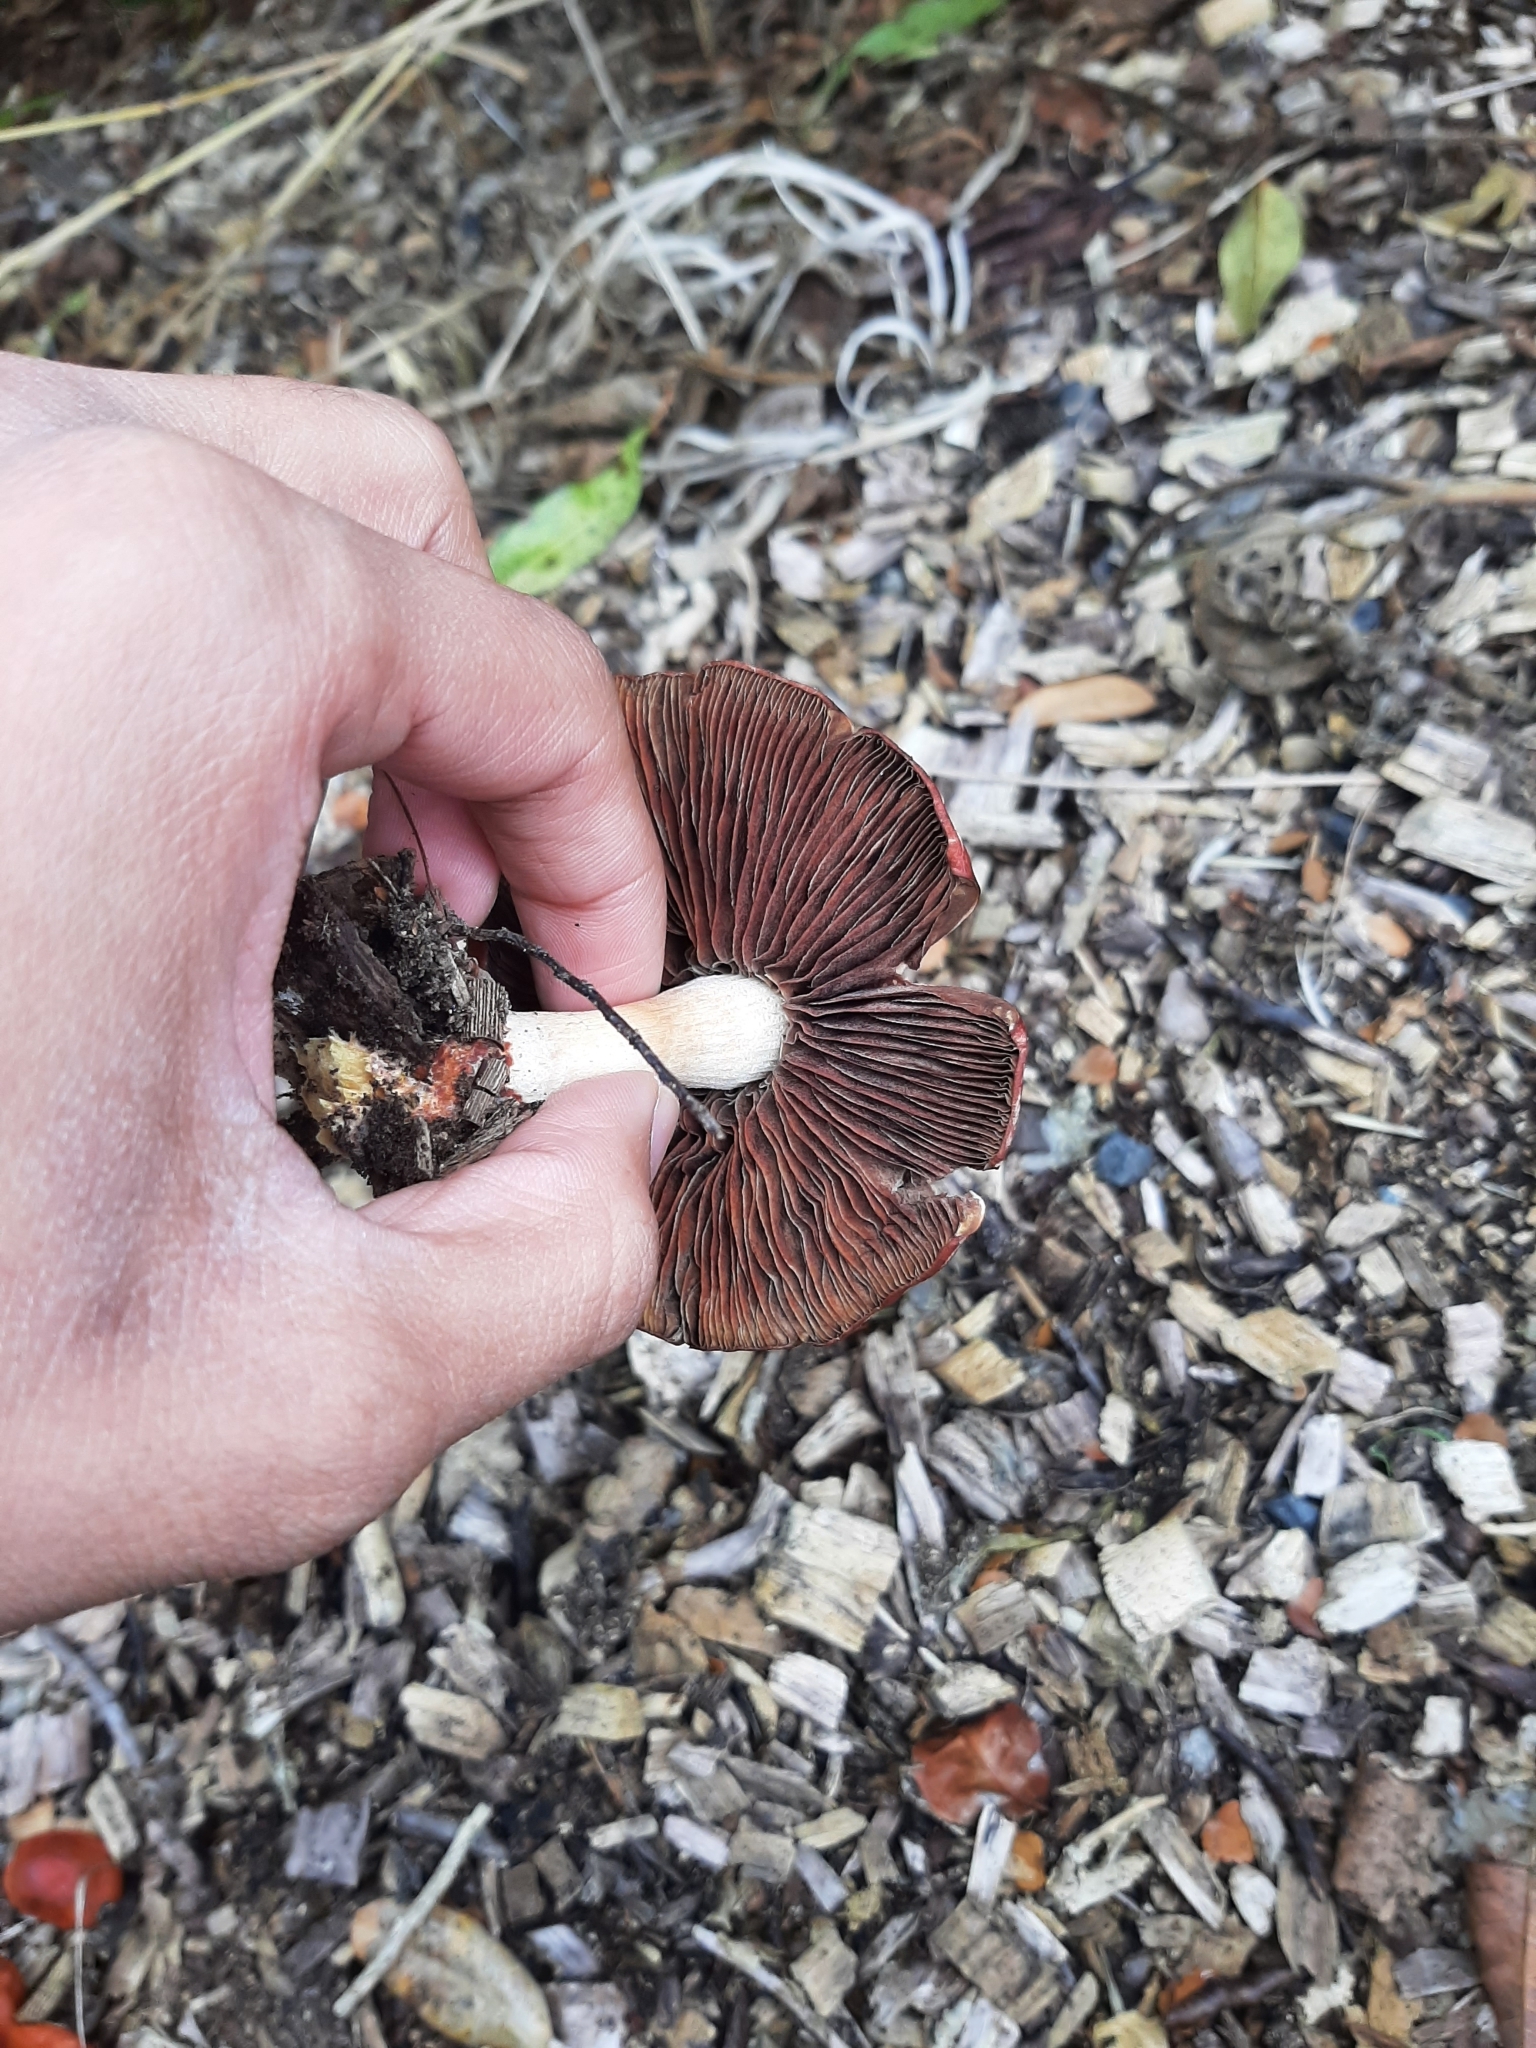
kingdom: Fungi
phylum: Basidiomycota
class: Agaricomycetes
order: Agaricales
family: Strophariaceae
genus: Leratiomyces
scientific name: Leratiomyces ceres
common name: Redlead roundhead
